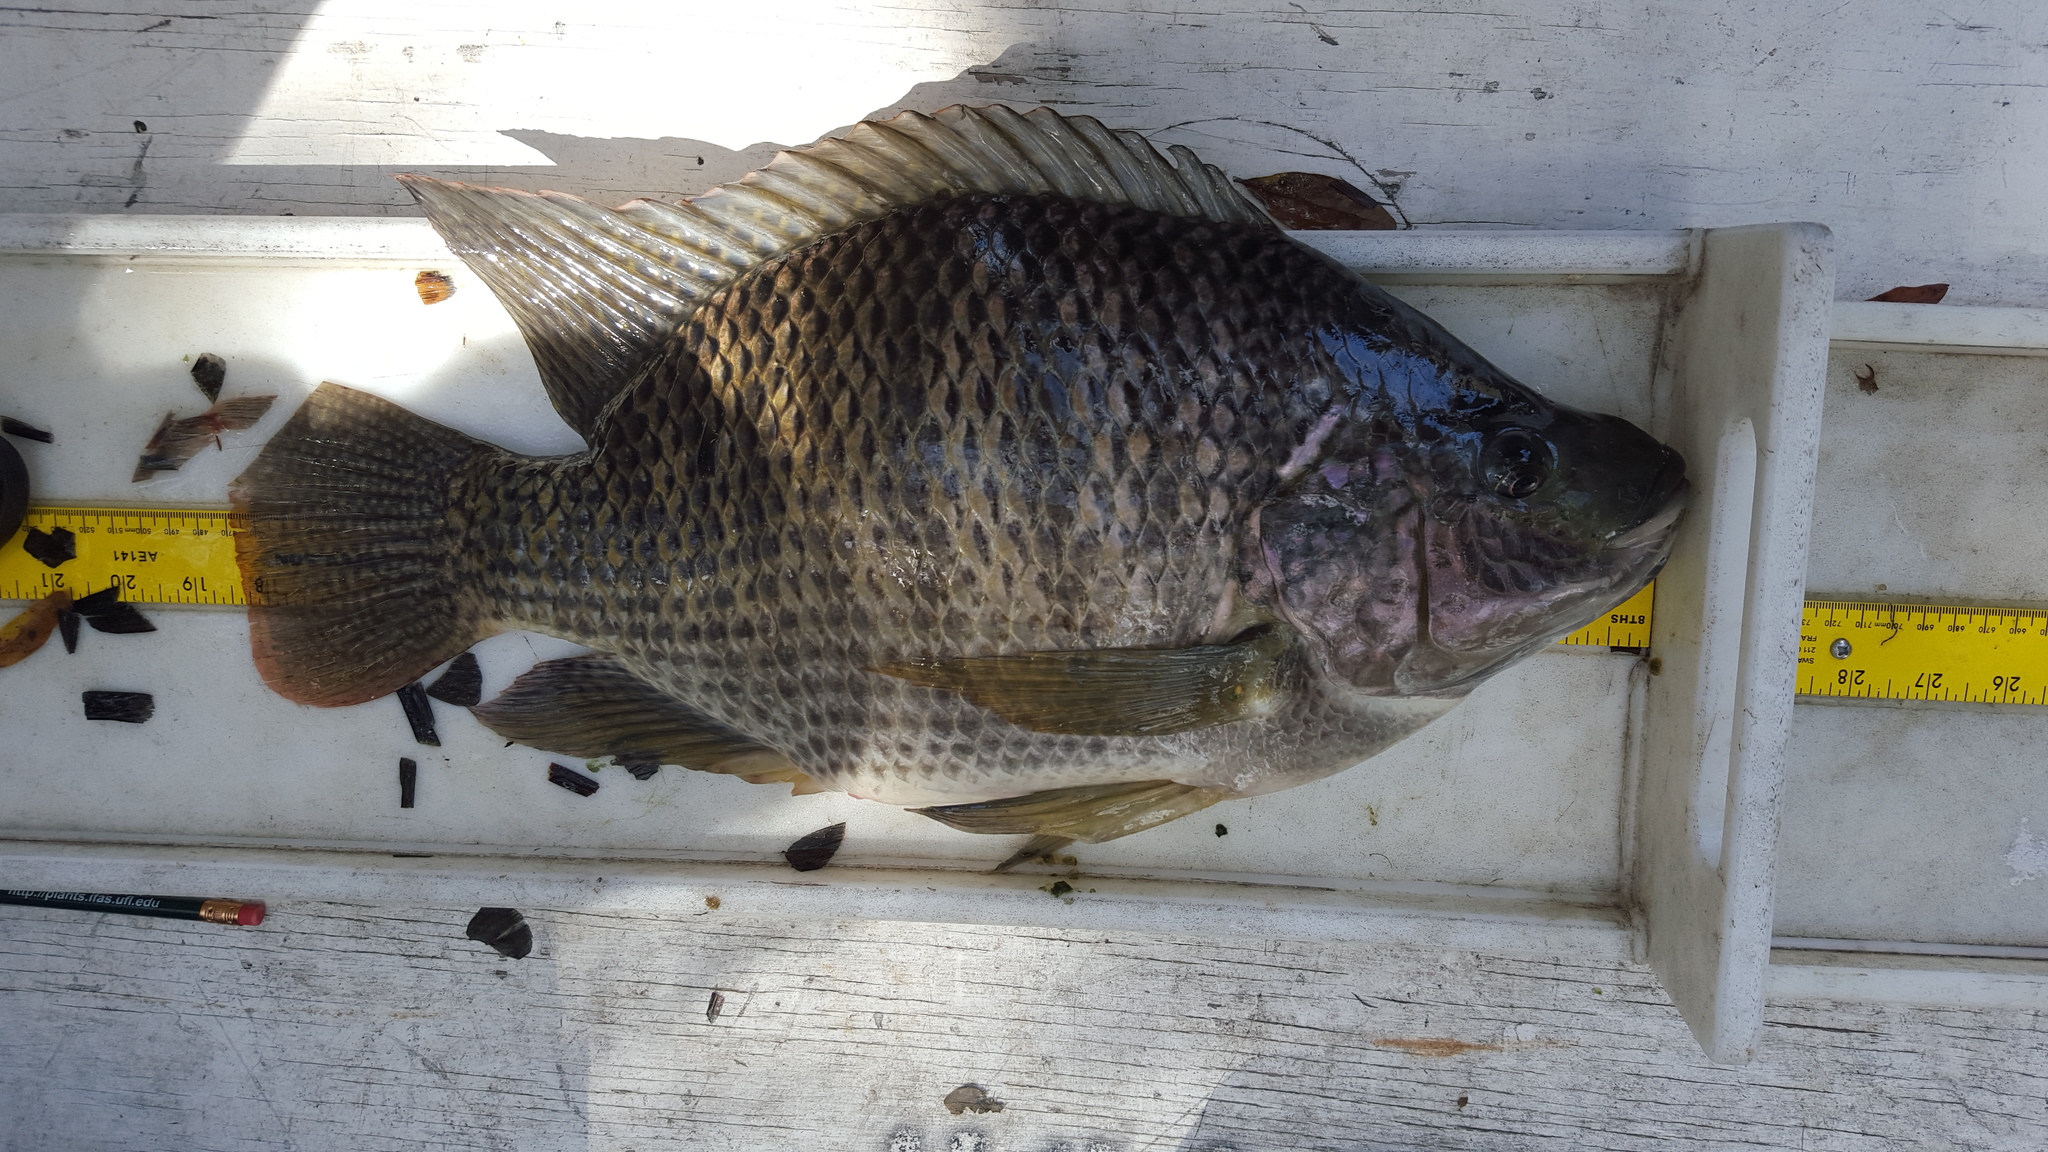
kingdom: Animalia
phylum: Chordata
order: Perciformes
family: Cichlidae
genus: Oreochromis
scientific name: Oreochromis aureus
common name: Blue tilapia
